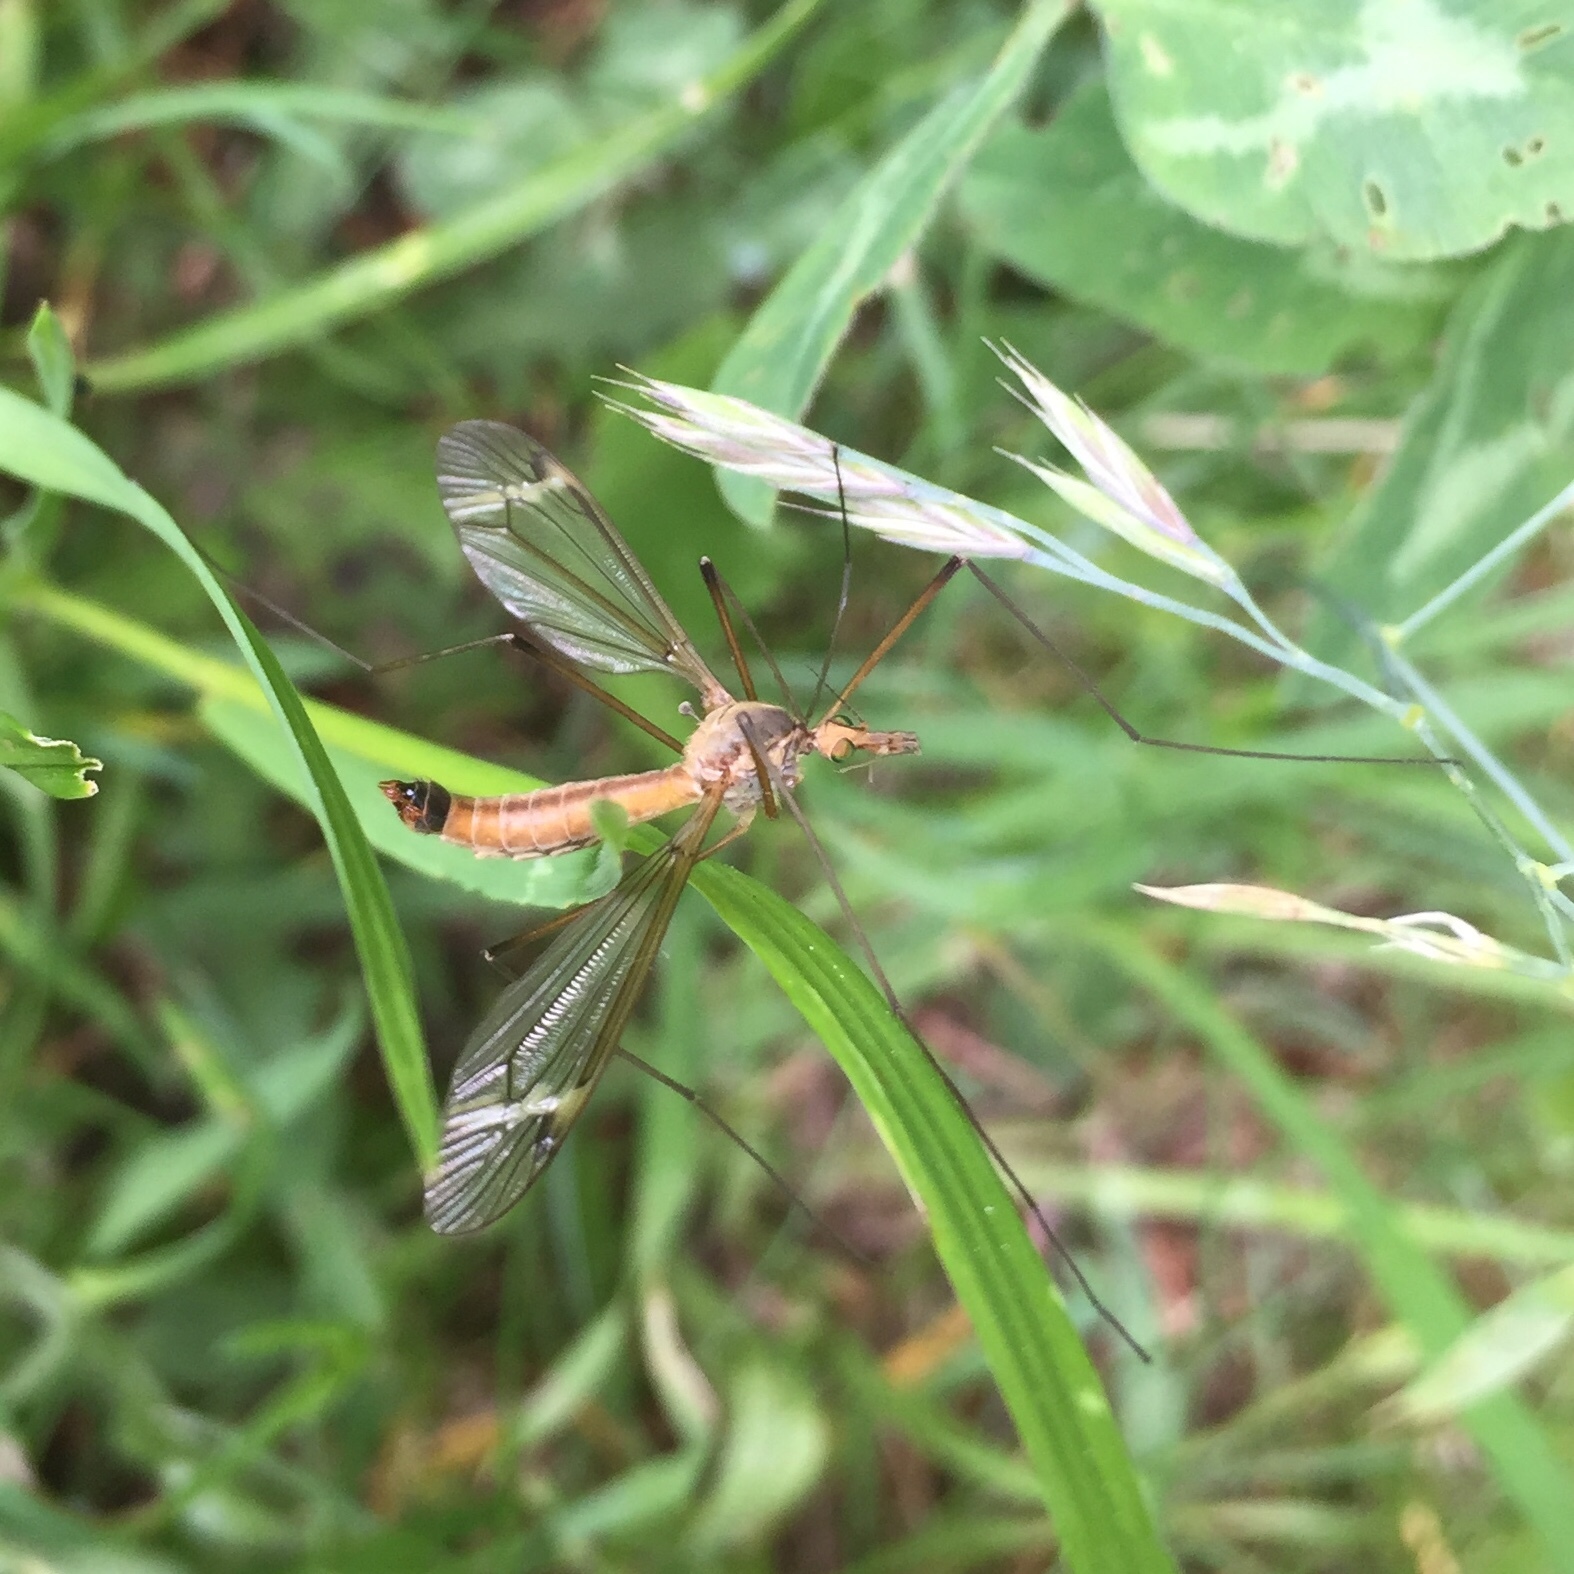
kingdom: Animalia
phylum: Arthropoda
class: Insecta
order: Diptera
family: Tipulidae
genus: Tipula
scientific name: Tipula fascipennis
